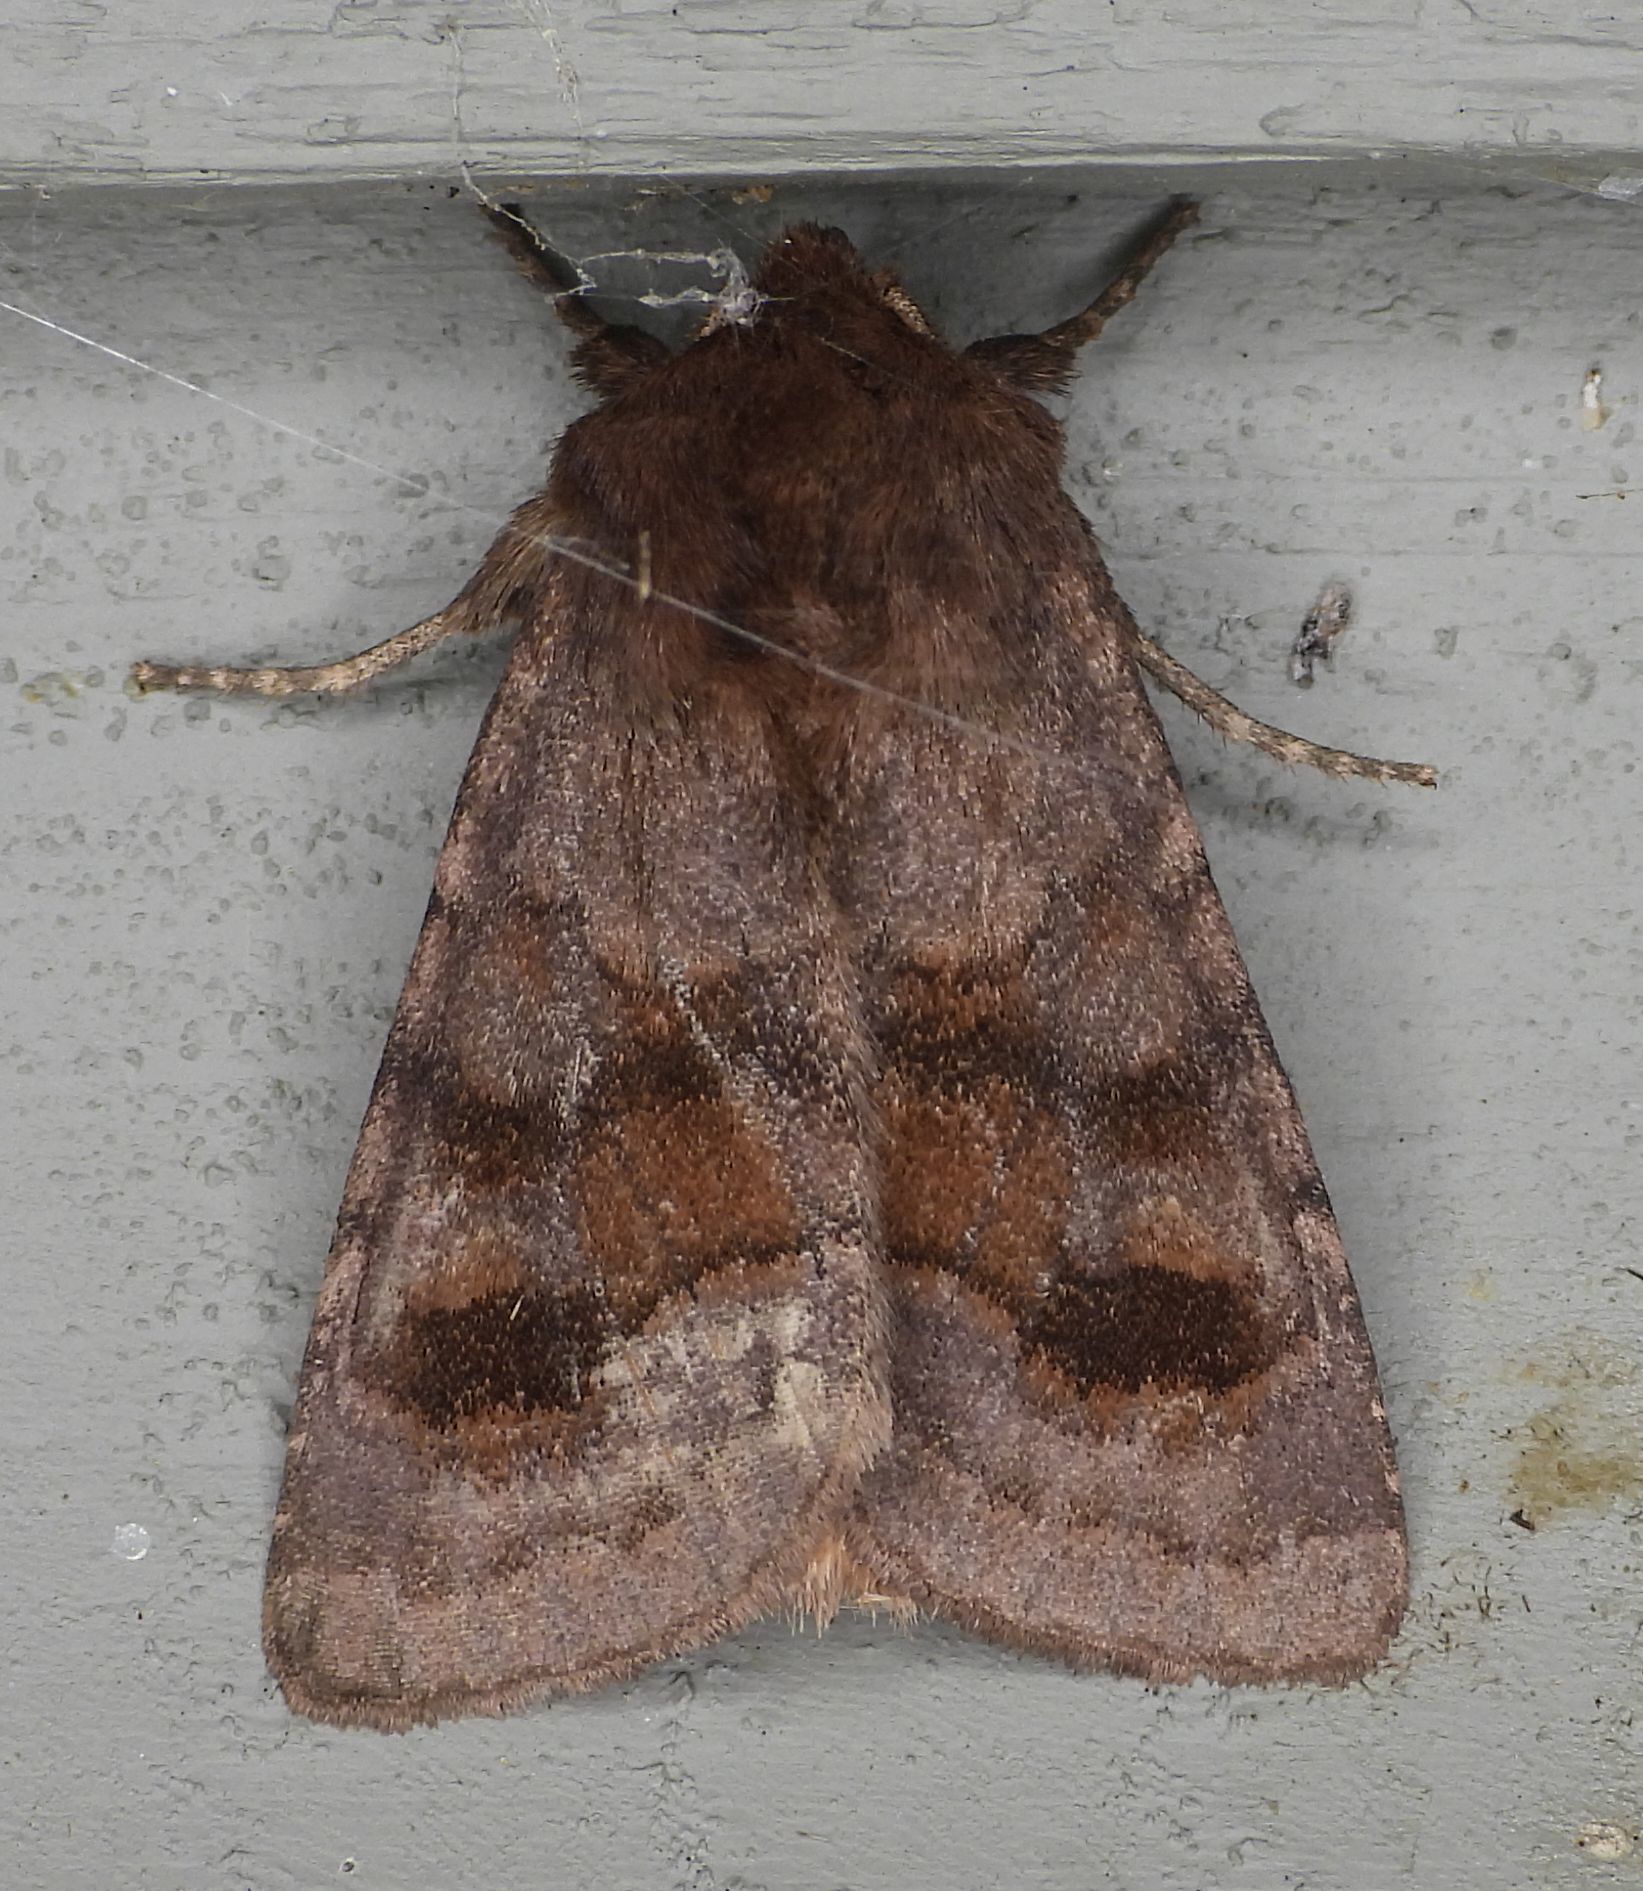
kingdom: Animalia
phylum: Arthropoda
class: Insecta
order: Lepidoptera
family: Noctuidae
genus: Nephelodes
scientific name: Nephelodes minians
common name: Bronzed cutworm
